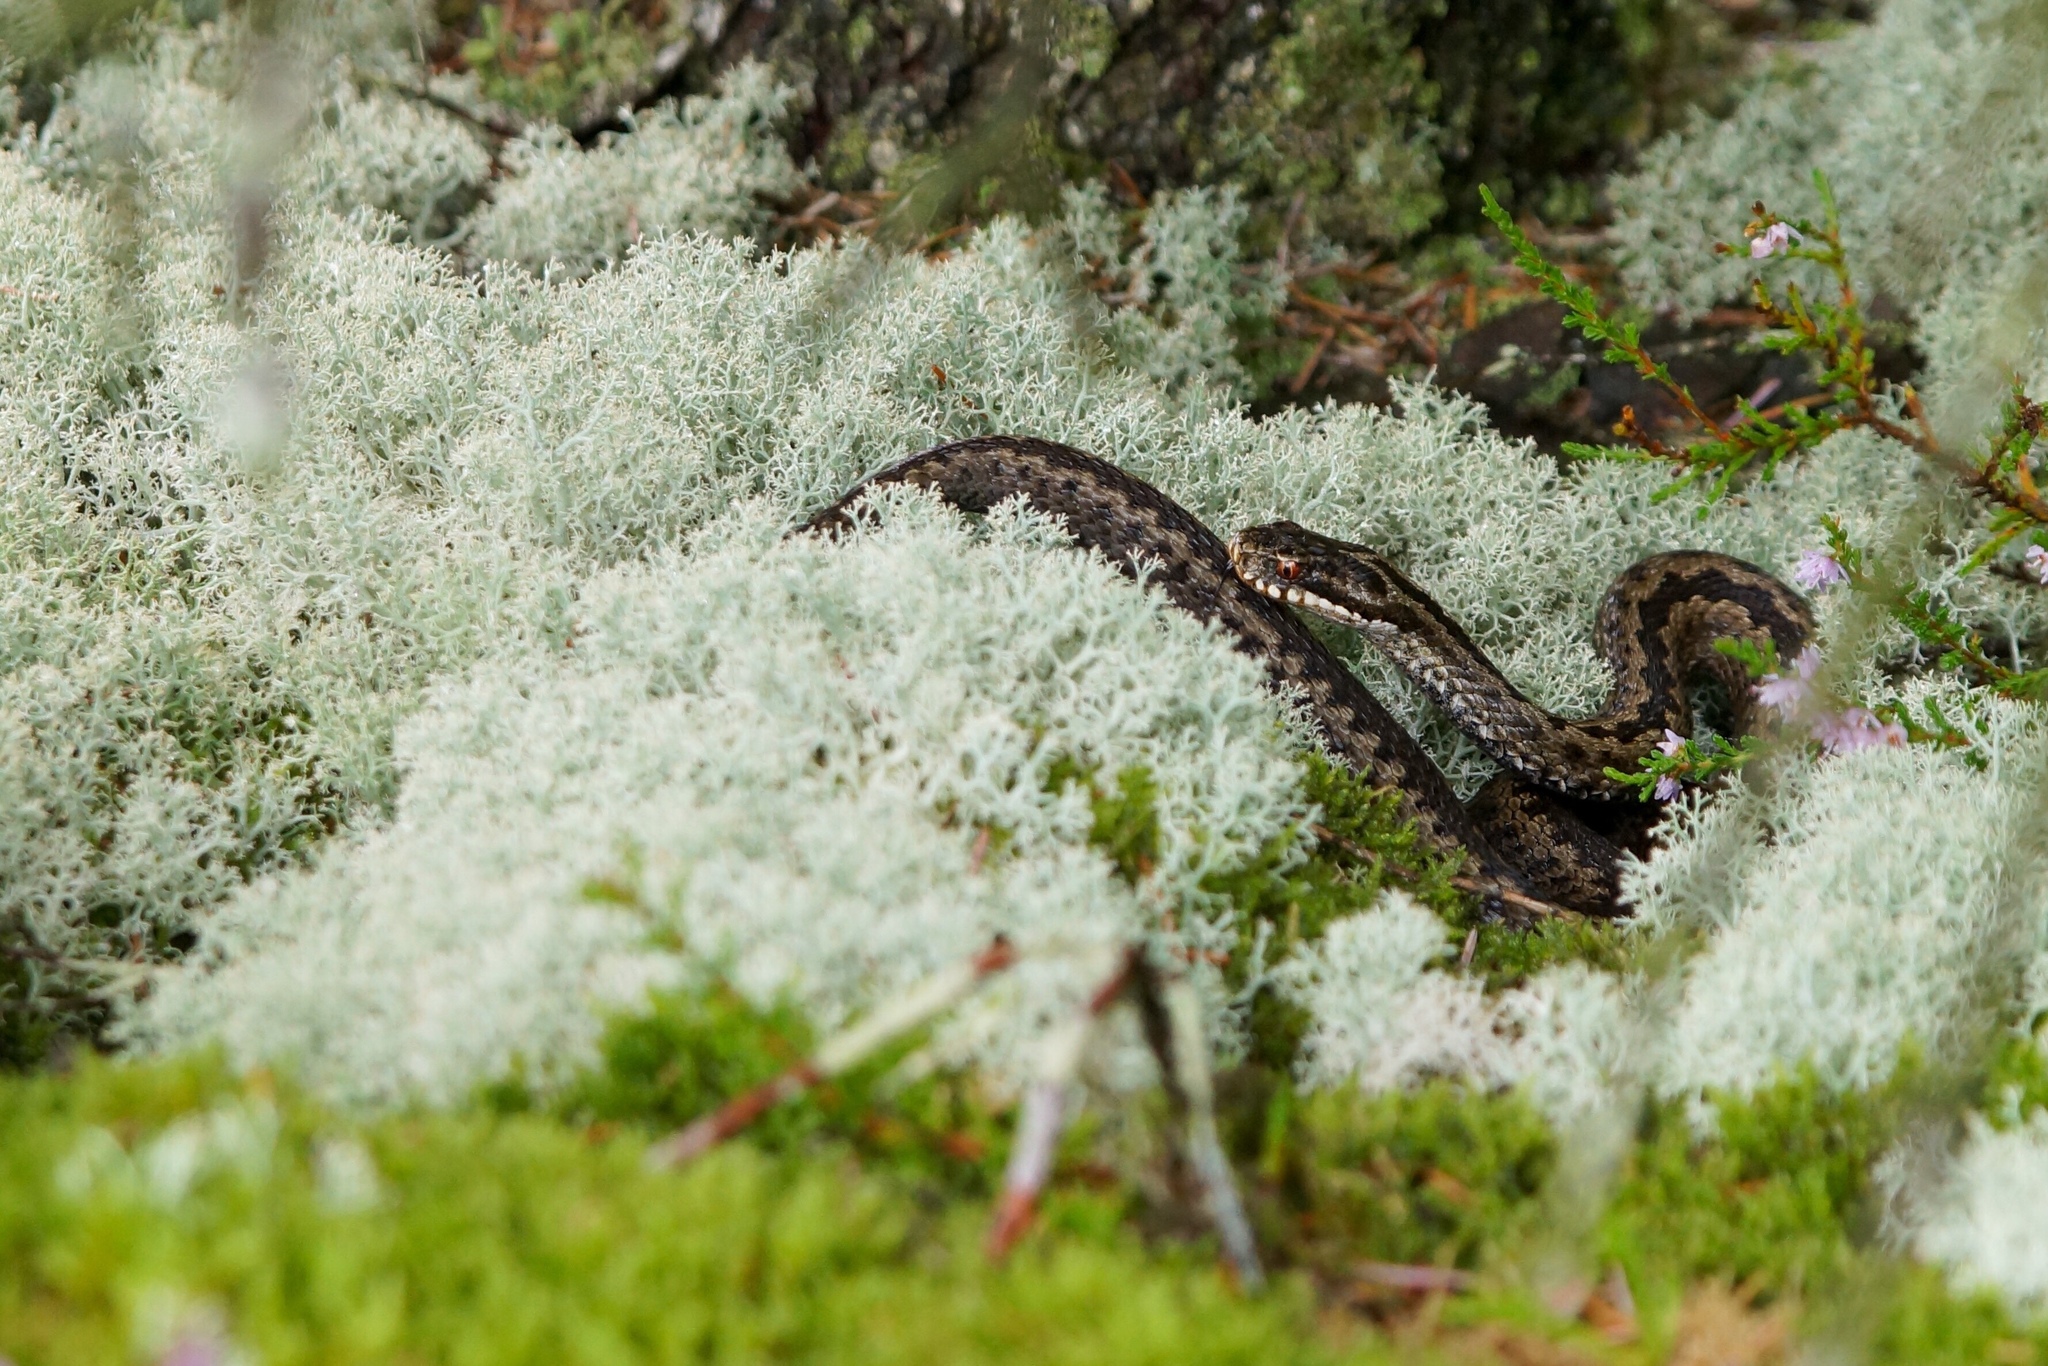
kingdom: Animalia
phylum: Chordata
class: Squamata
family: Viperidae
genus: Vipera
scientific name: Vipera berus
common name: Adder
